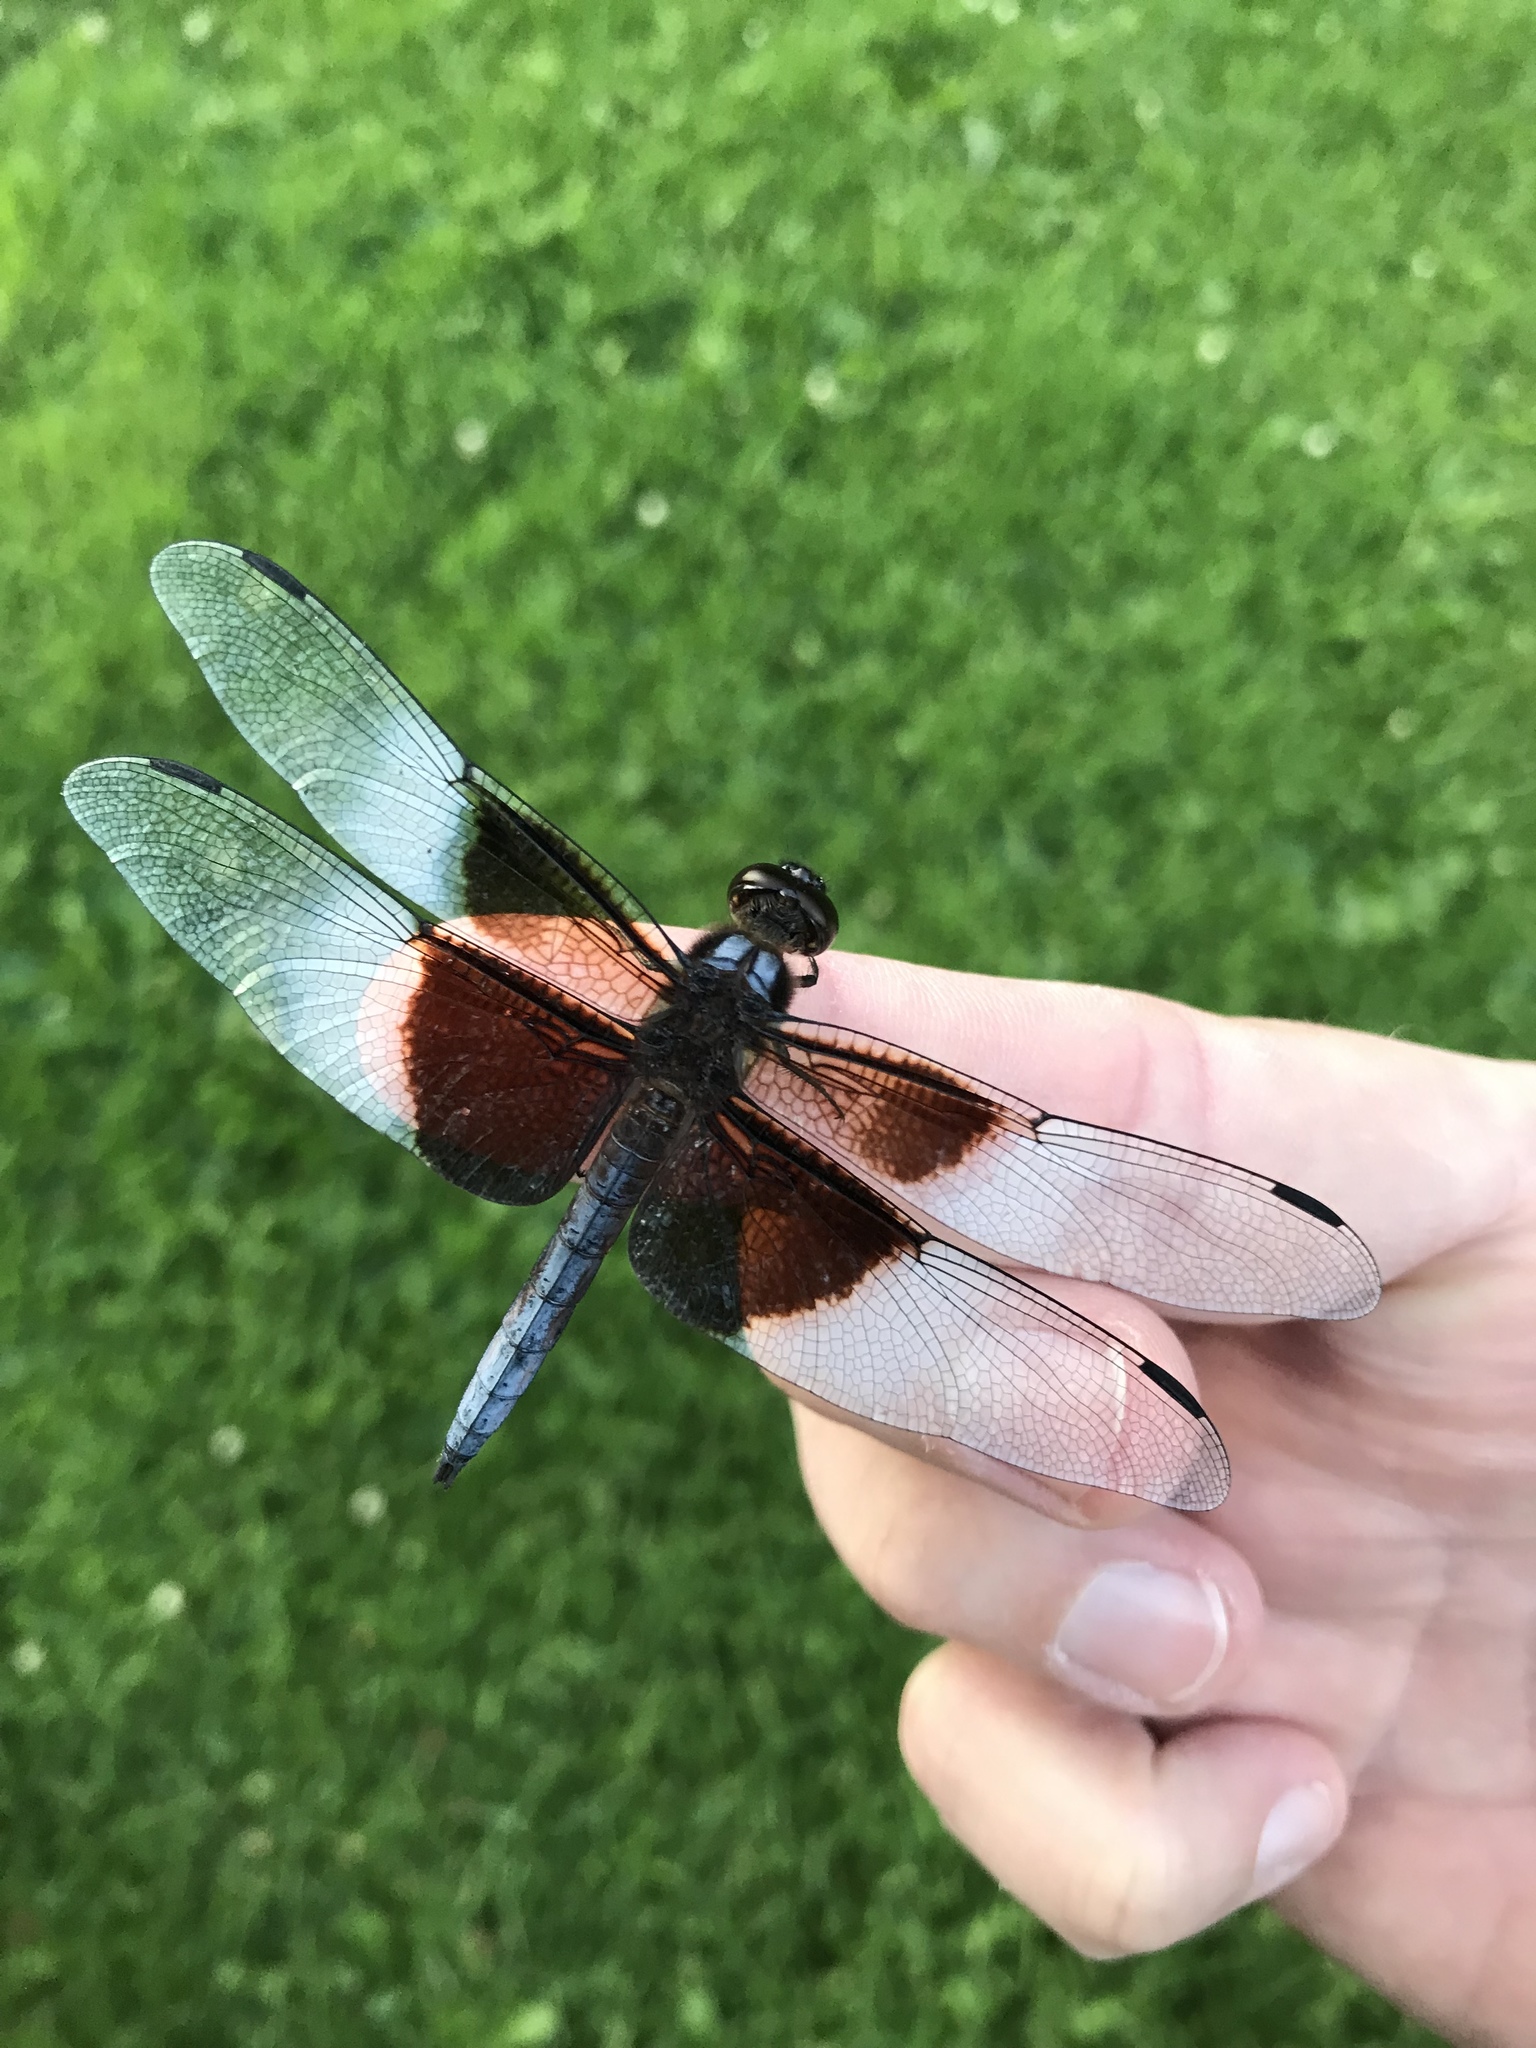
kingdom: Animalia
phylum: Arthropoda
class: Insecta
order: Odonata
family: Libellulidae
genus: Libellula
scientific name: Libellula luctuosa
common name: Widow skimmer
